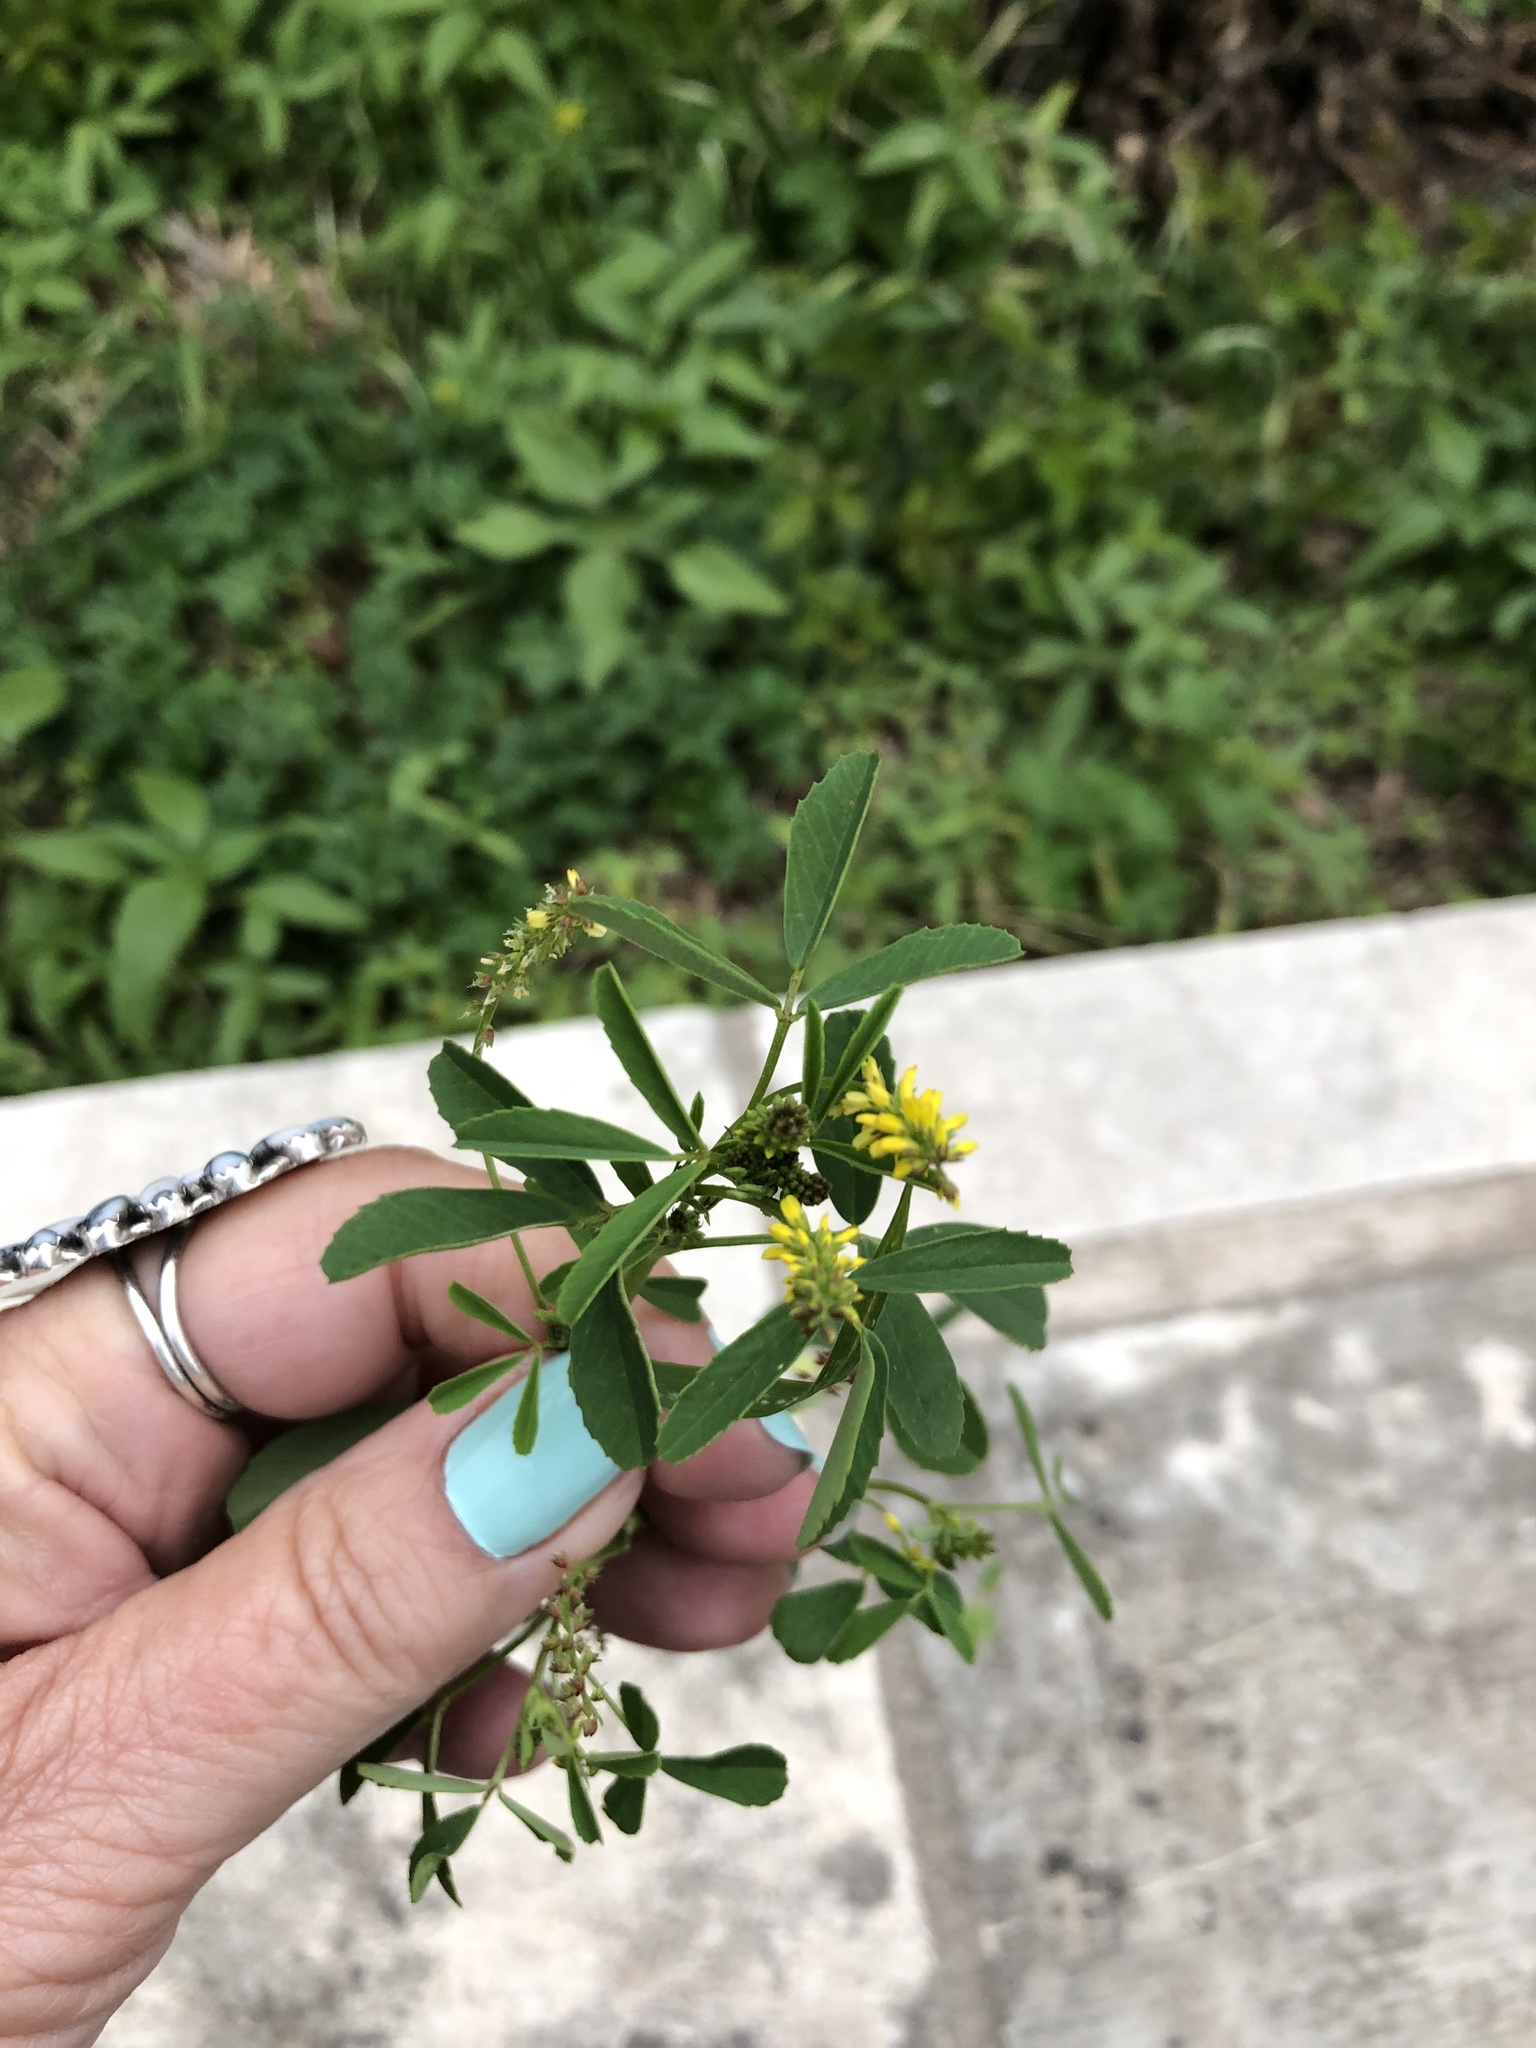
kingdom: Plantae
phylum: Tracheophyta
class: Magnoliopsida
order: Fabales
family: Fabaceae
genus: Melilotus
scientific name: Melilotus indicus
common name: Small melilot
